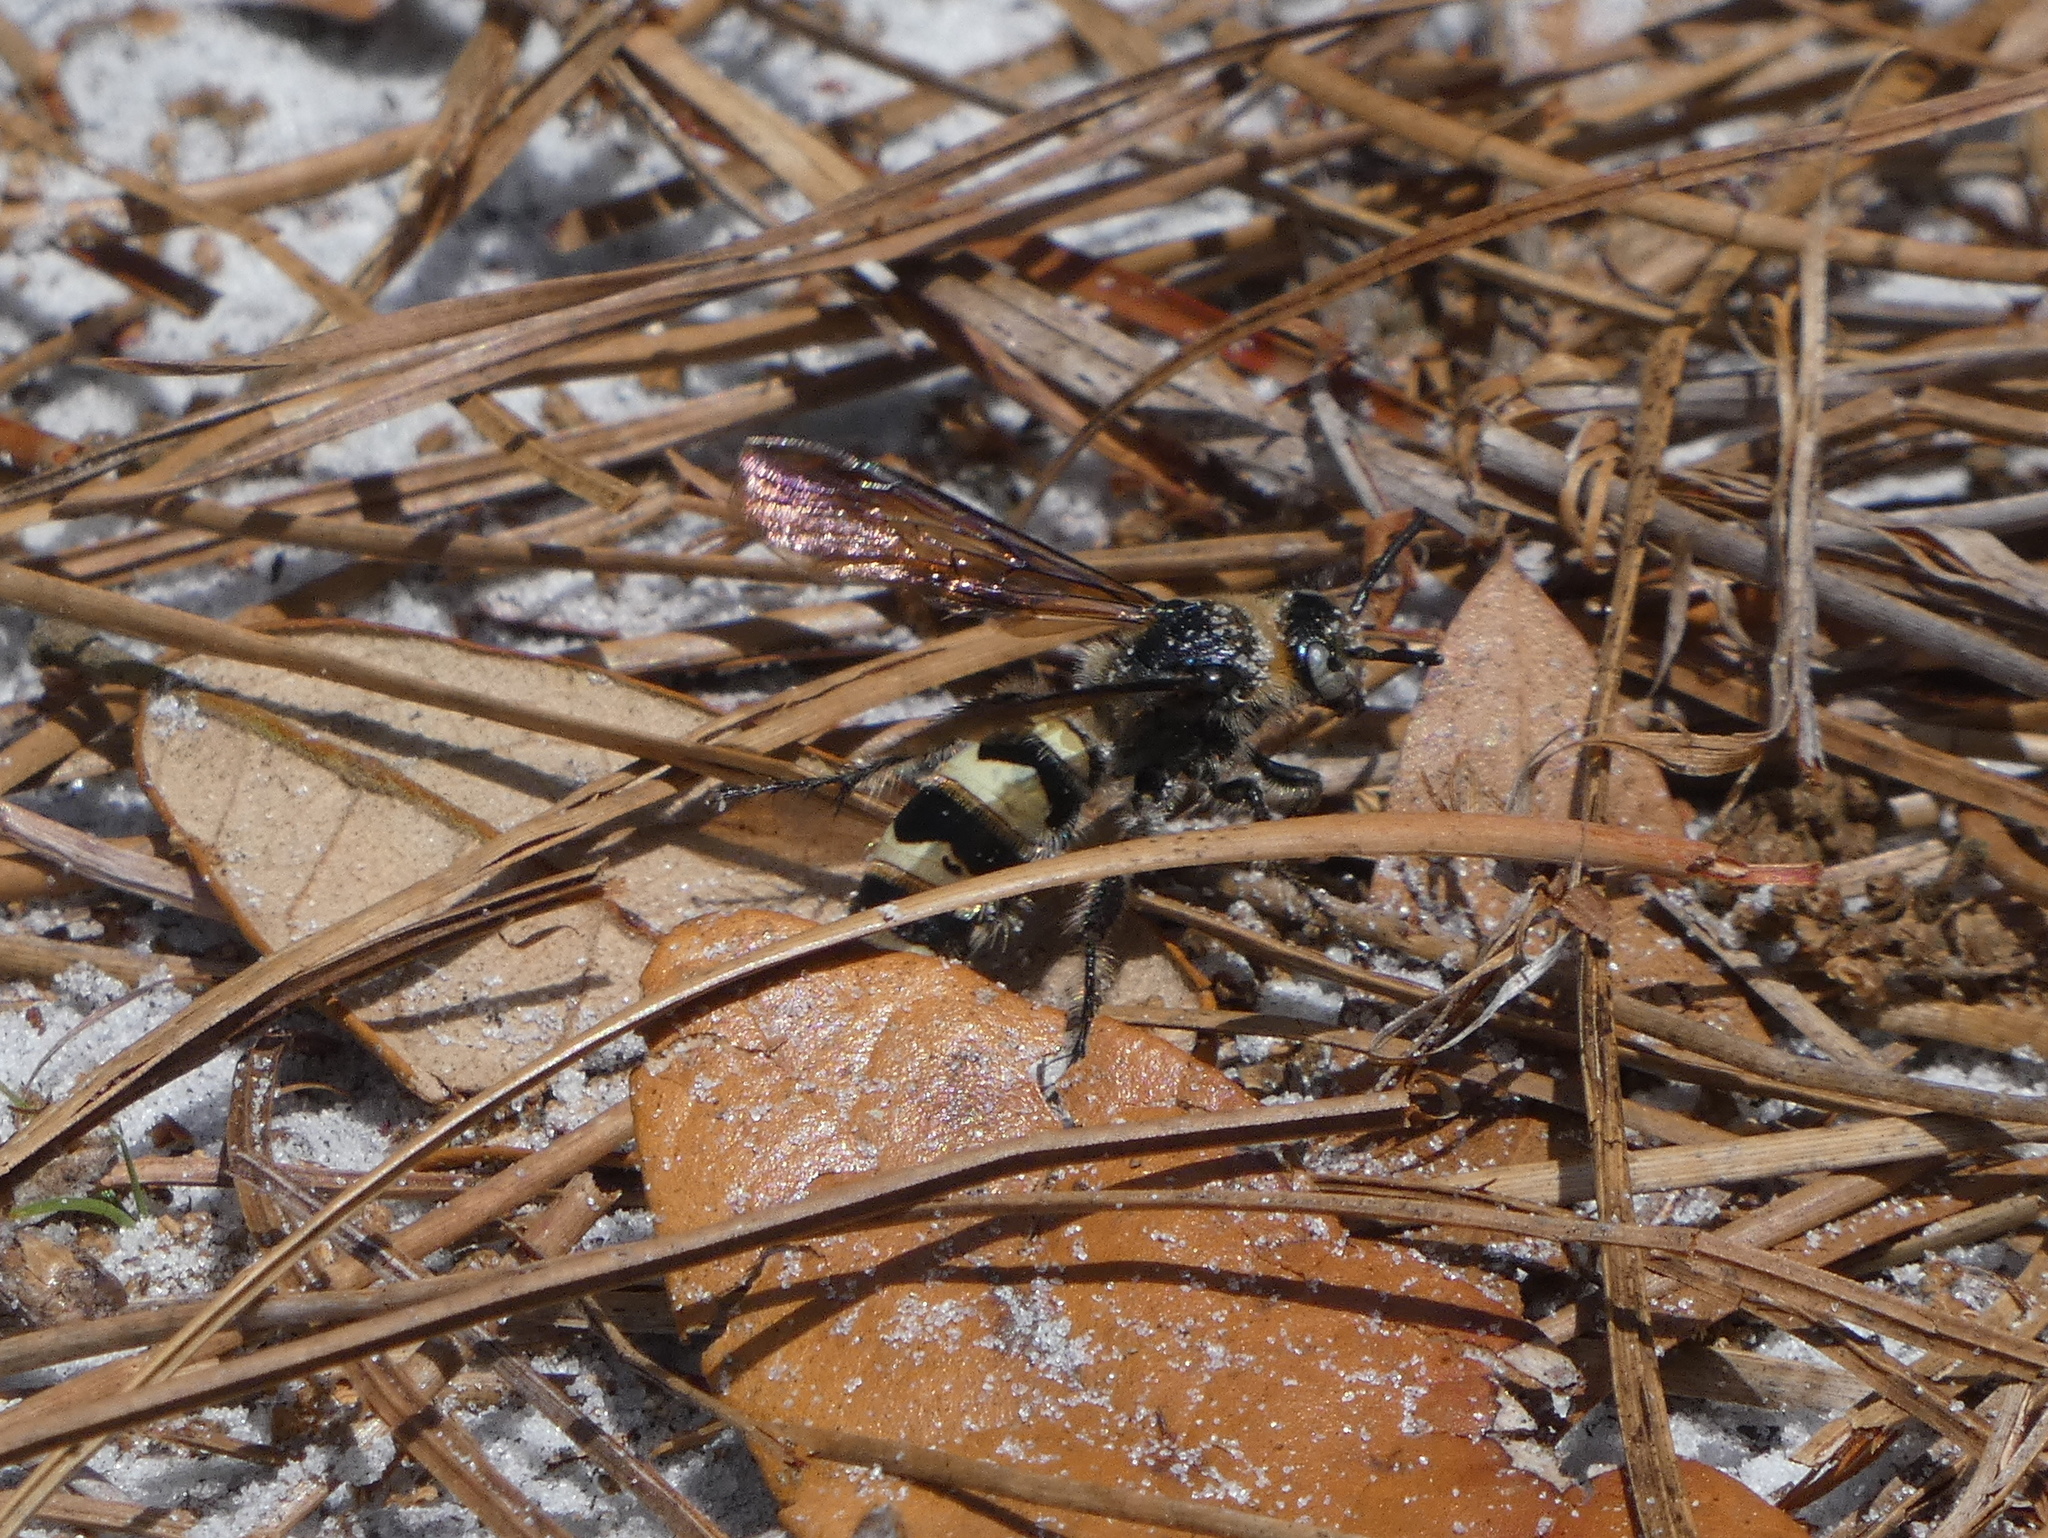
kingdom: Animalia
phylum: Arthropoda
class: Insecta
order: Hymenoptera
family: Scoliidae
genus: Dielis
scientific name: Dielis
